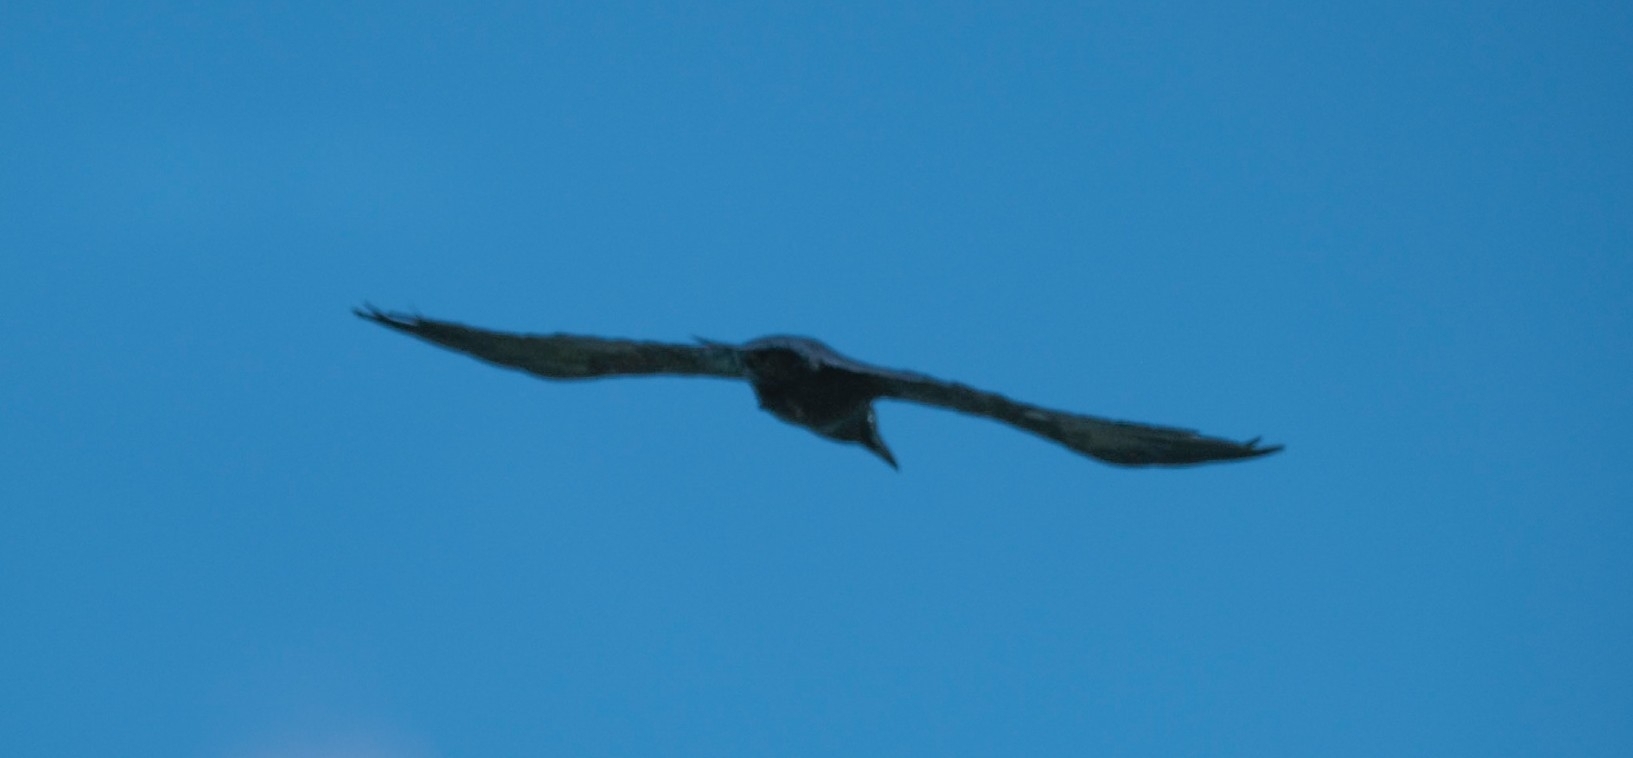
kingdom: Animalia
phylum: Chordata
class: Aves
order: Passeriformes
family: Corvidae
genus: Corvus
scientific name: Corvus tasmanicus
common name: Forest raven
